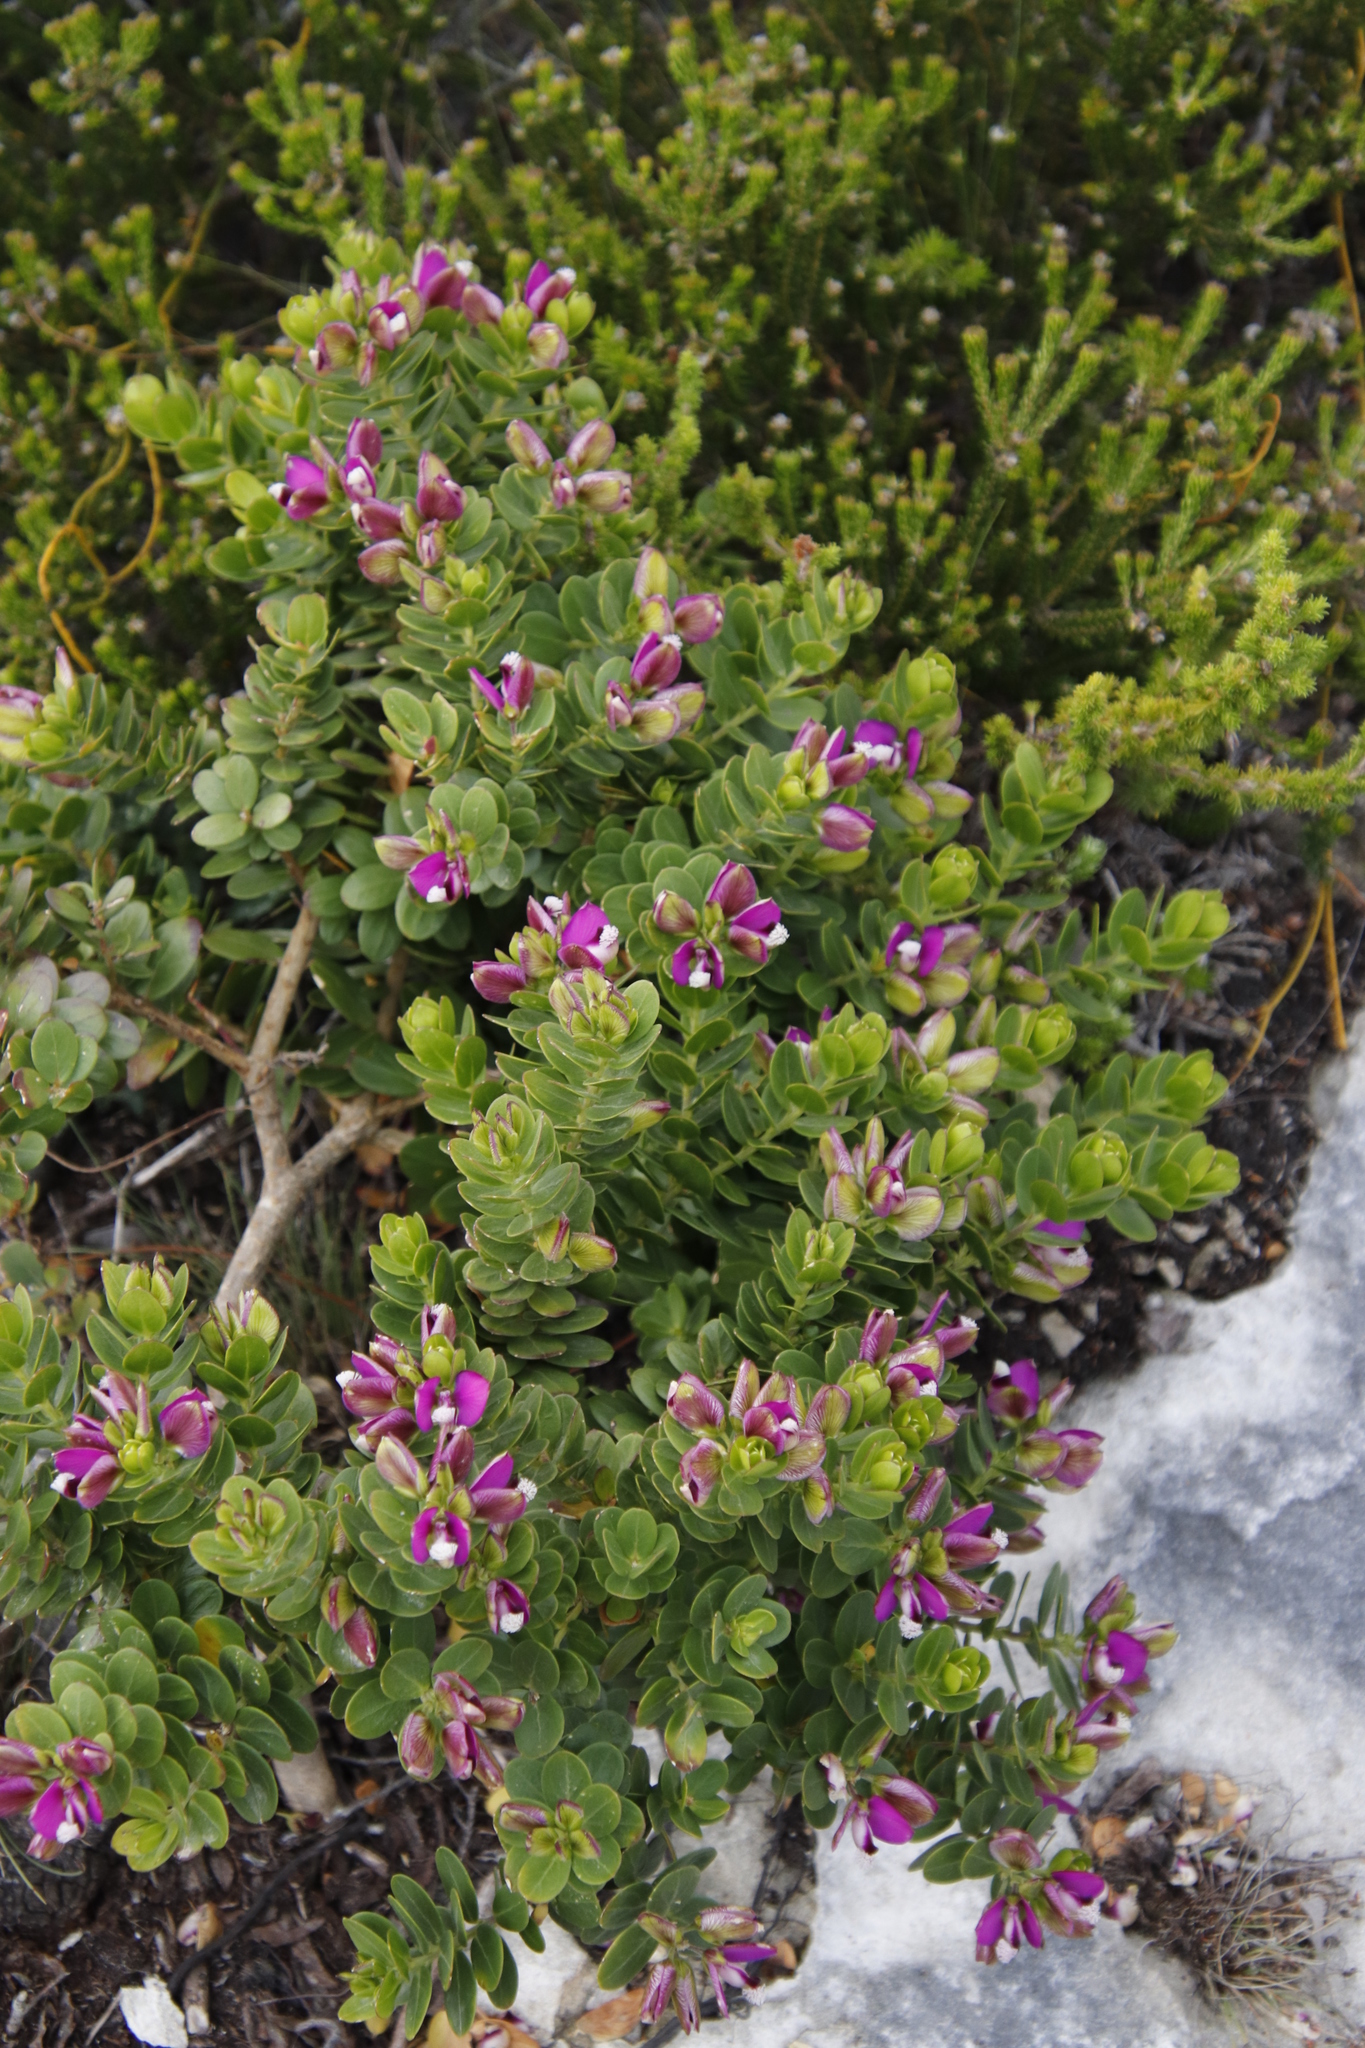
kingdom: Plantae
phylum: Tracheophyta
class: Magnoliopsida
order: Fabales
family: Polygalaceae
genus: Polygala
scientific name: Polygala myrtifolia
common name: Myrtle-leaf milkwort
